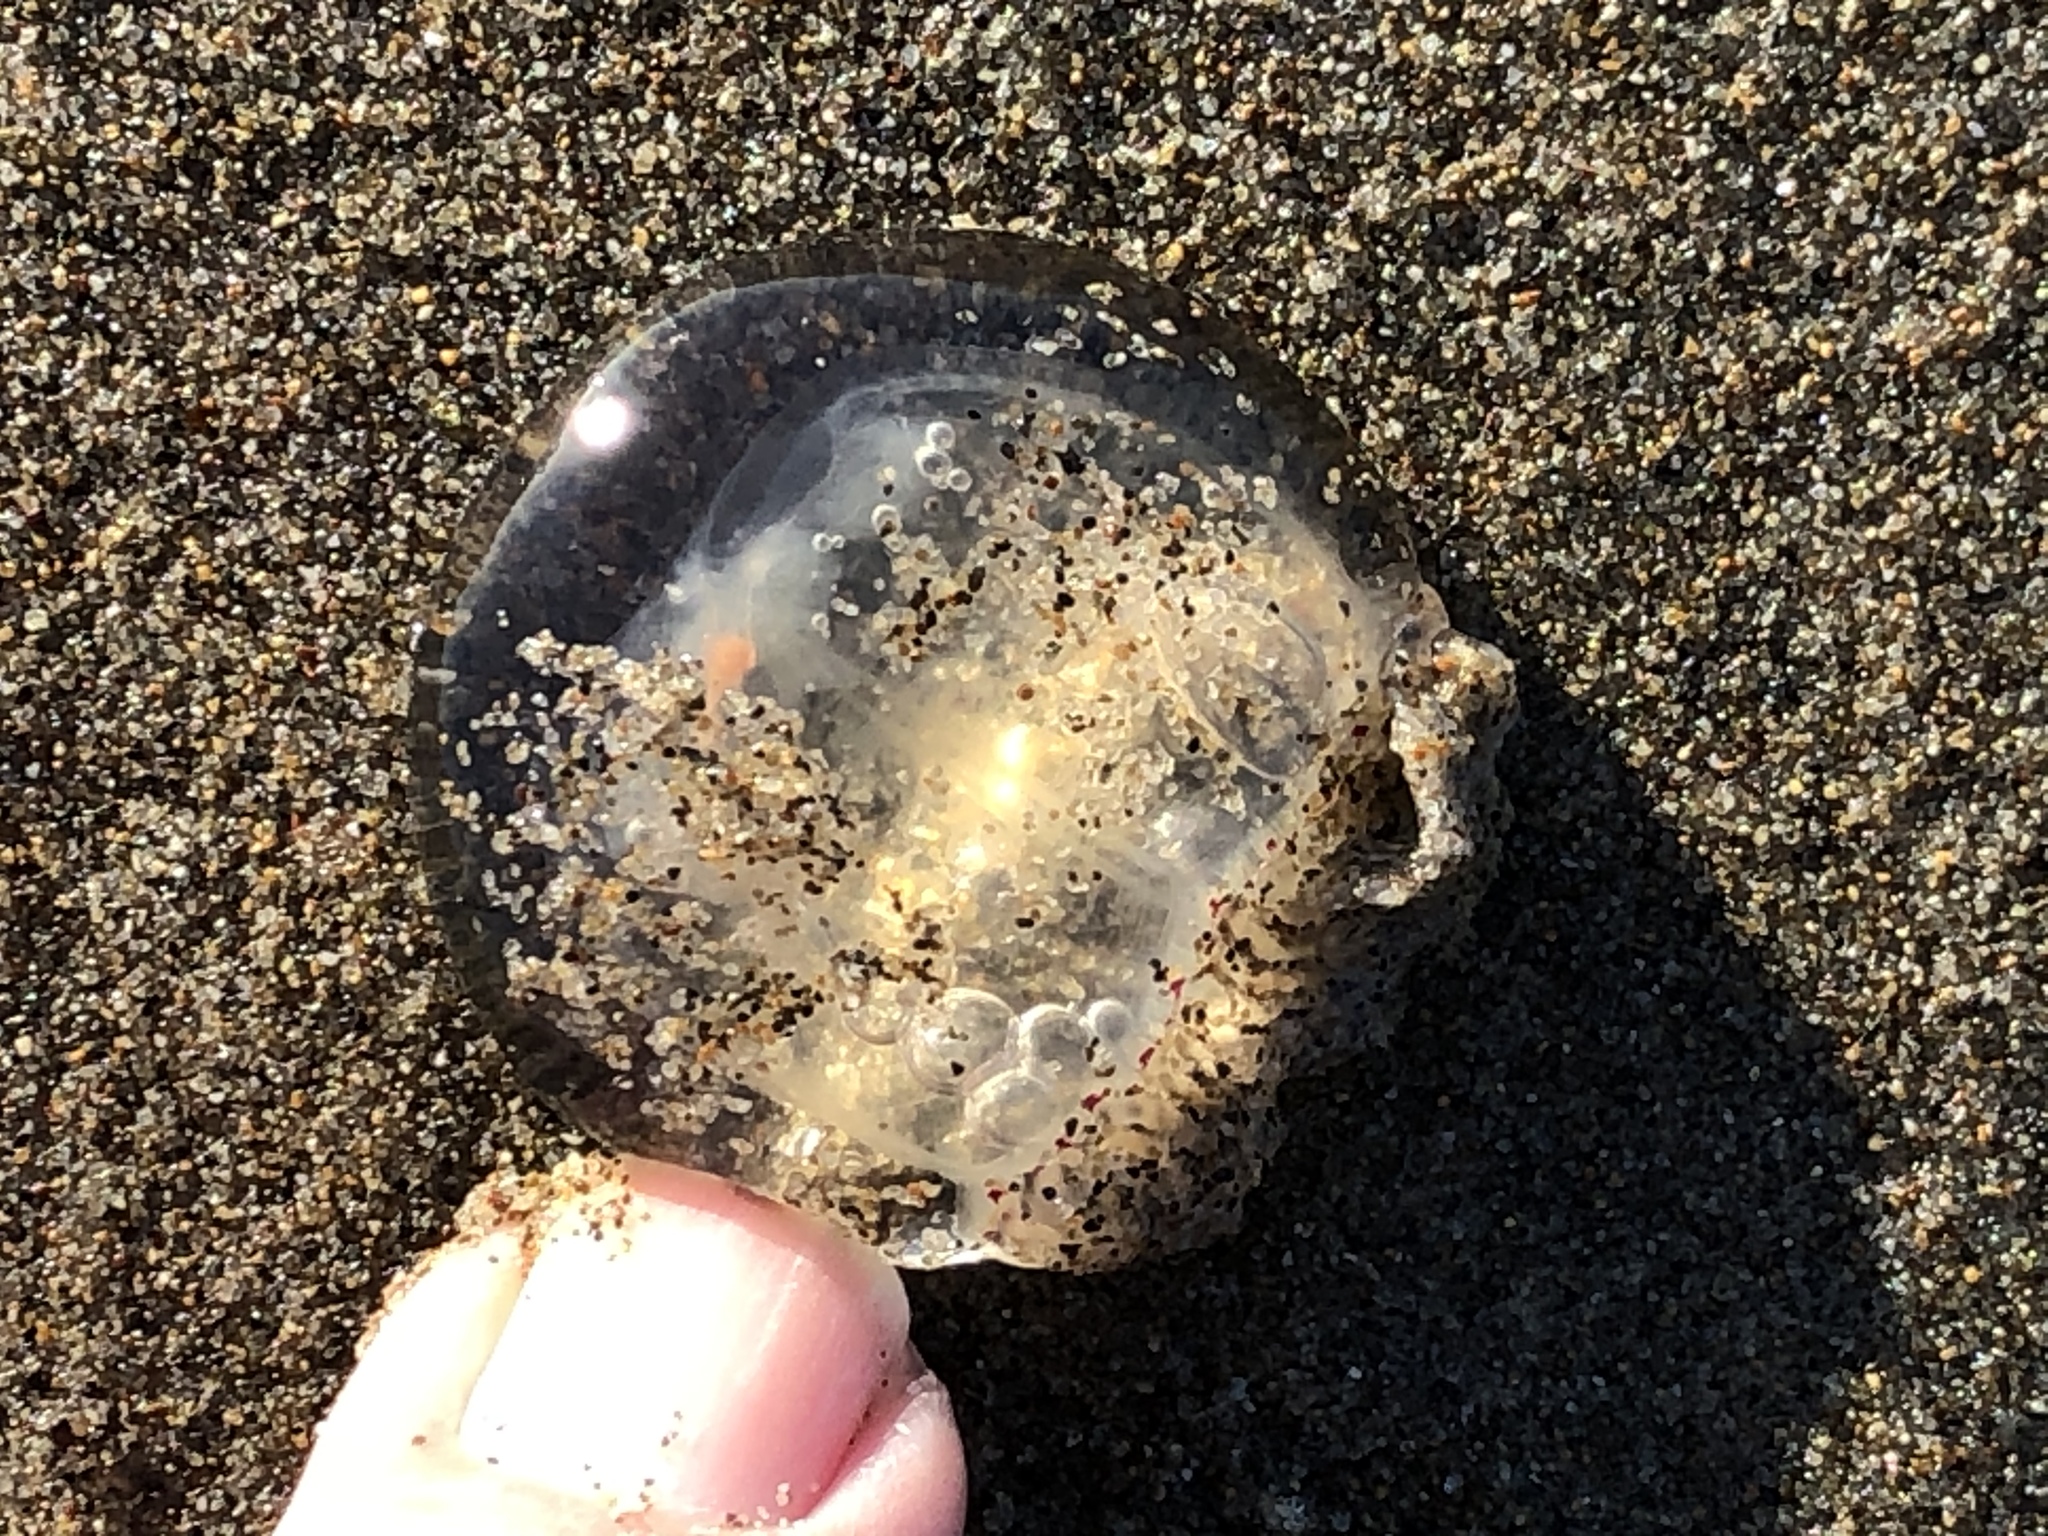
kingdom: Animalia
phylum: Cnidaria
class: Hydrozoa
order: Anthoathecata
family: Corynidae
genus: Polyorchis
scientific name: Polyorchis penicillatus
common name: Penicillate jellyfish
